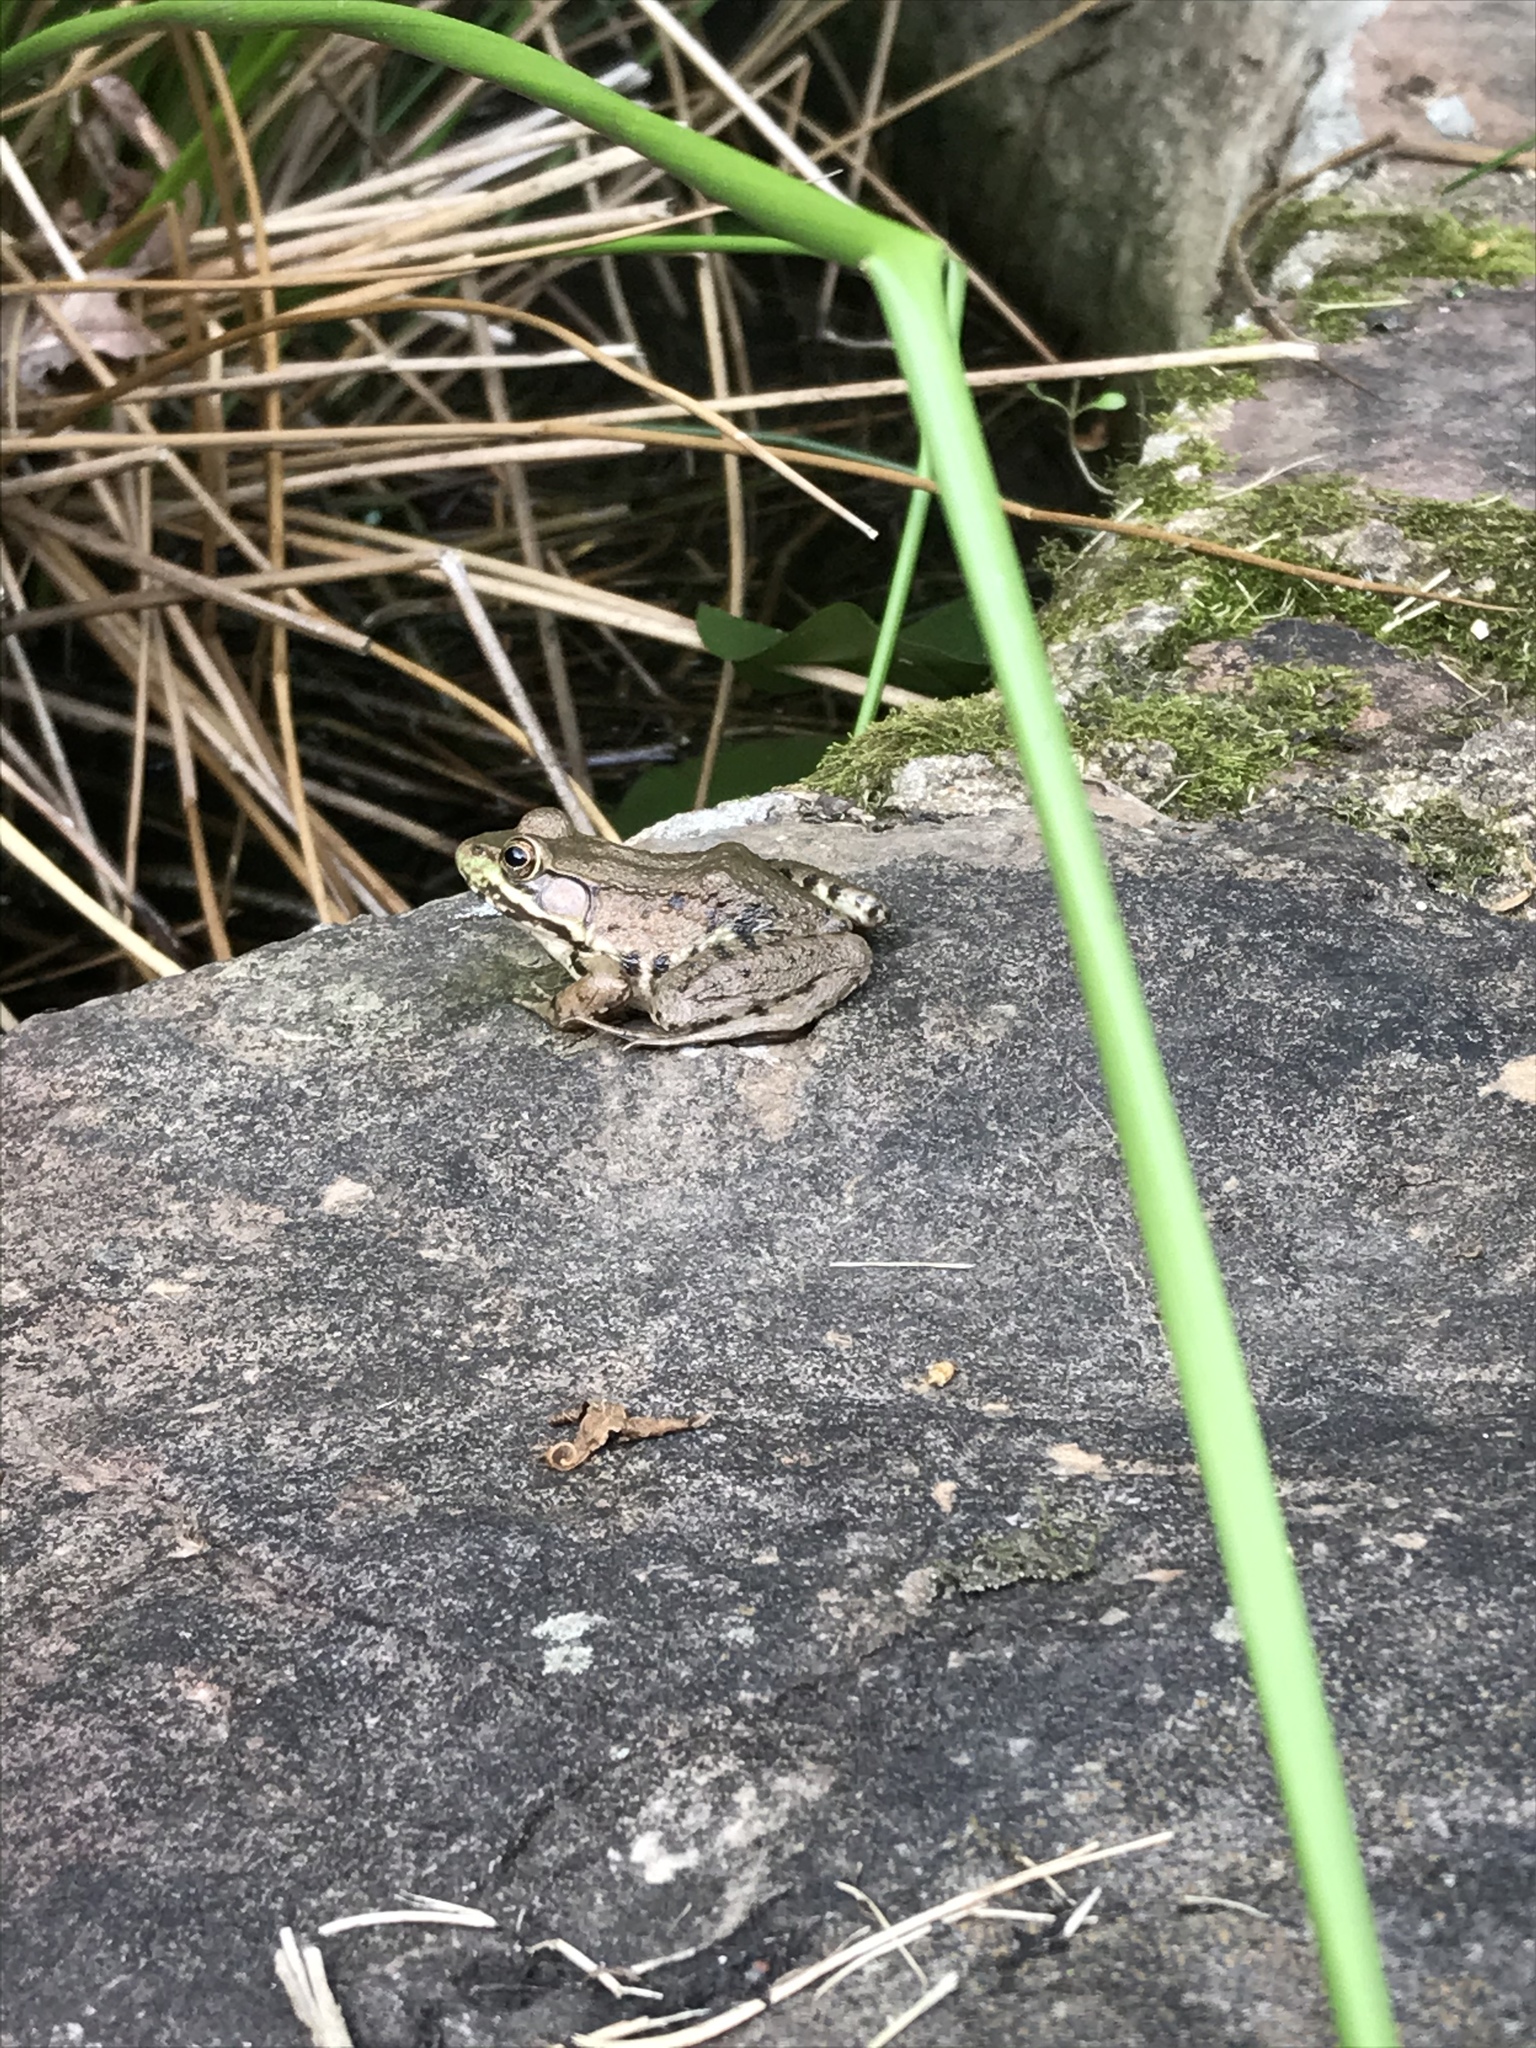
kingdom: Animalia
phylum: Chordata
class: Amphibia
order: Anura
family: Ranidae
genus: Lithobates
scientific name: Lithobates clamitans
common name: Green frog
